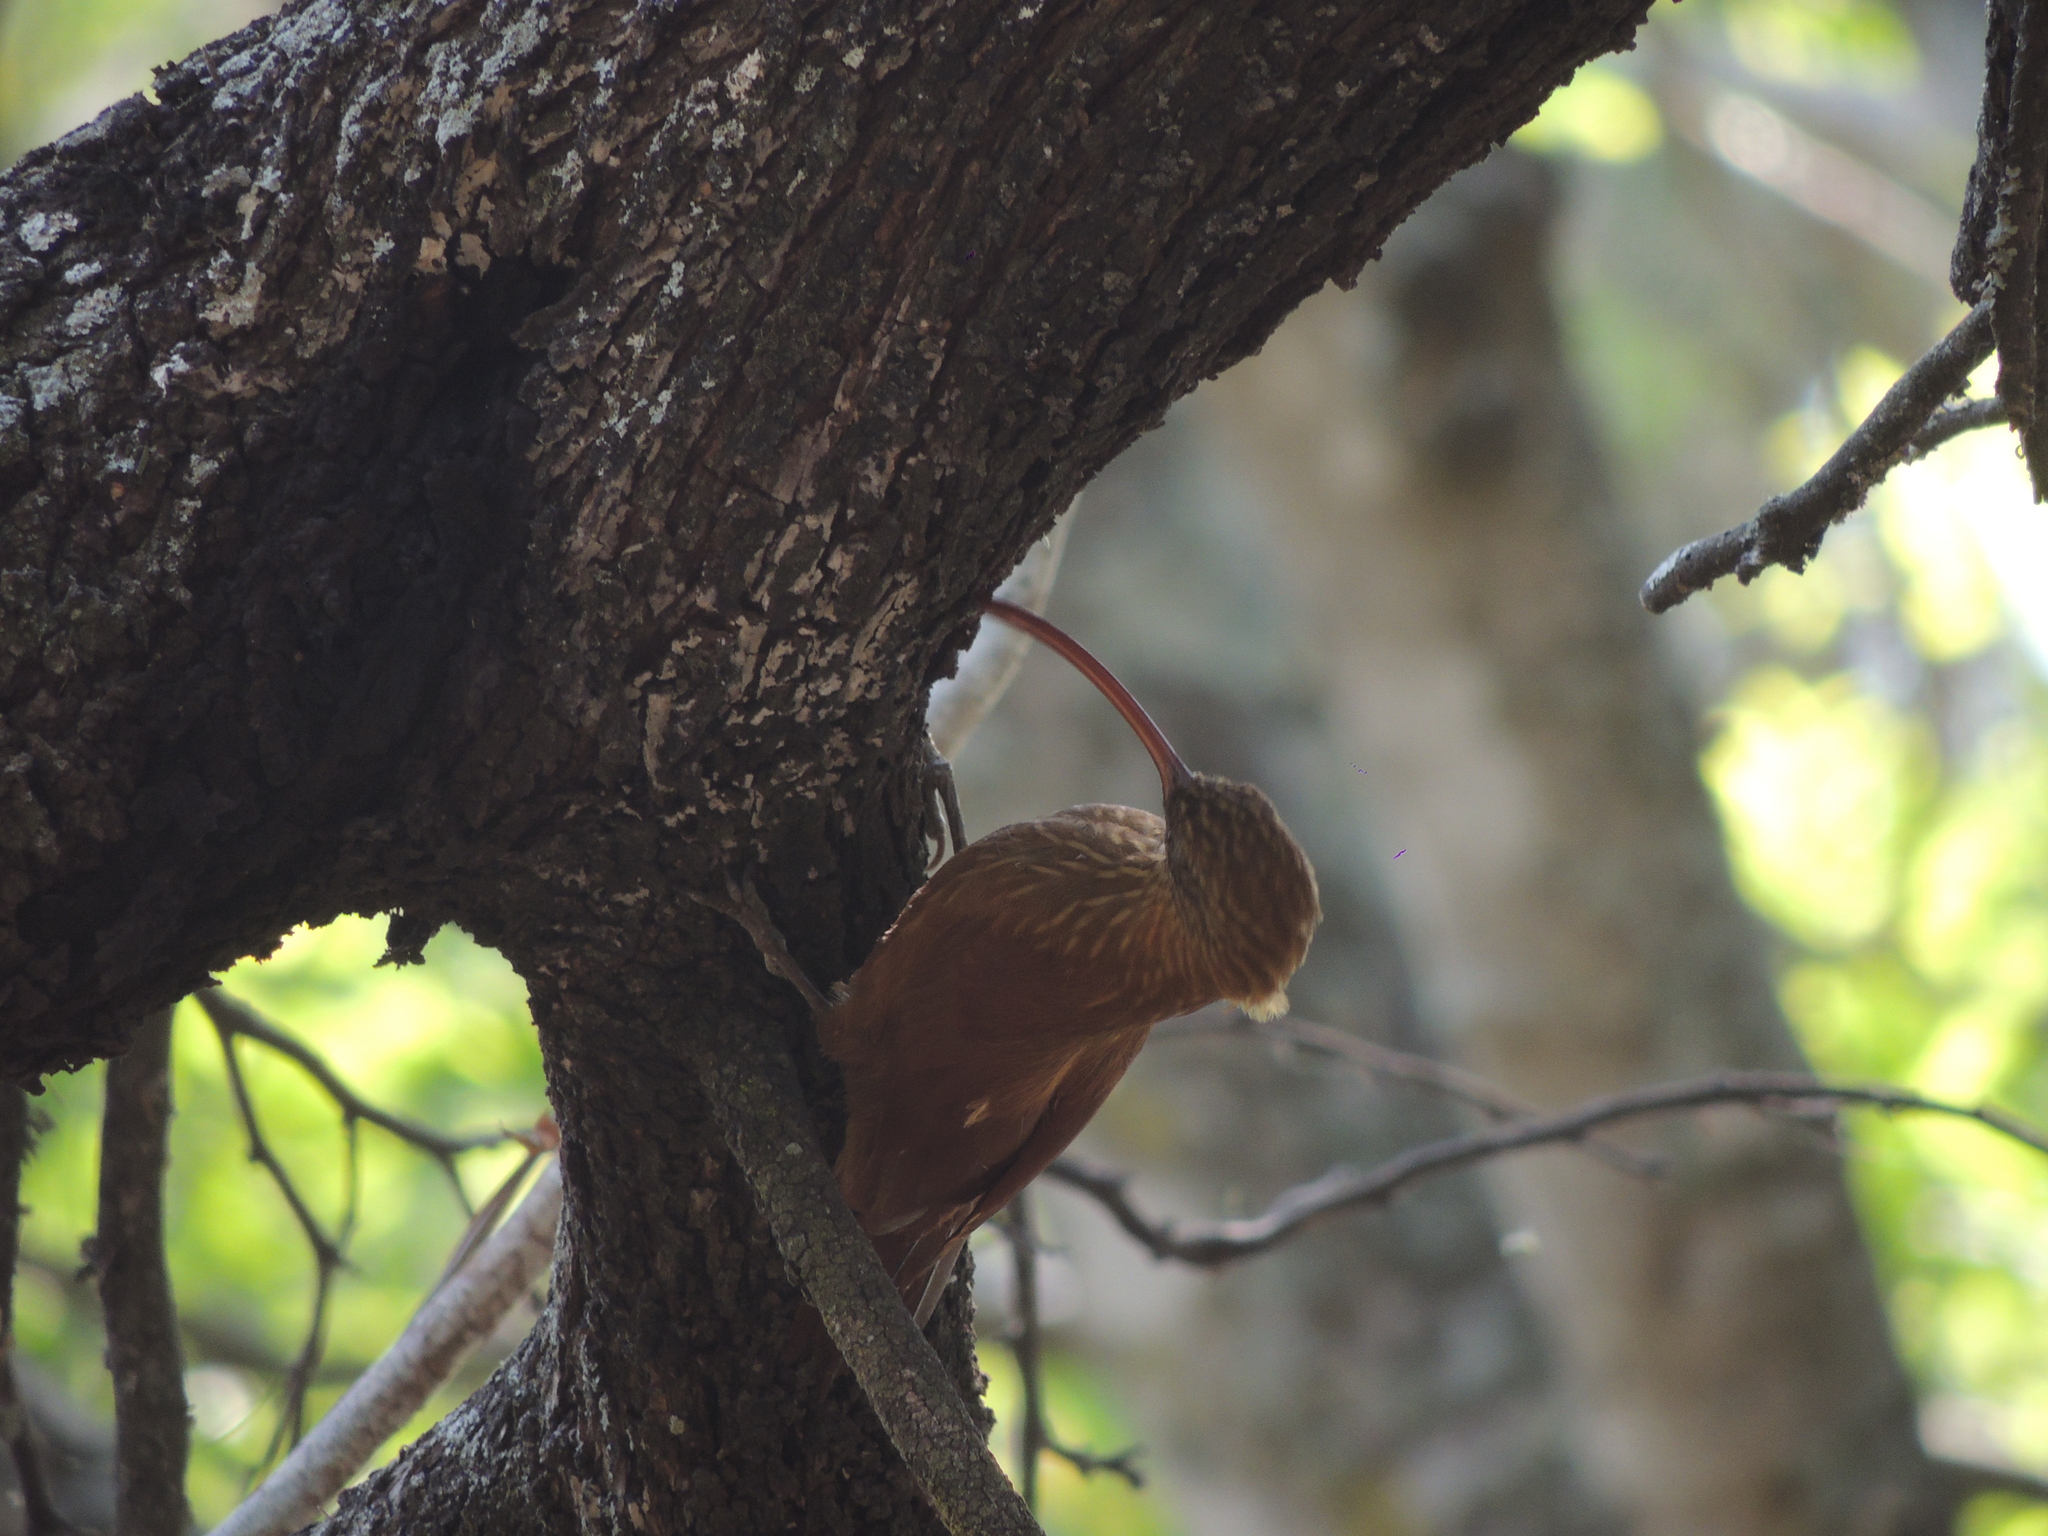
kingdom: Animalia
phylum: Chordata
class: Aves
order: Passeriformes
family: Furnariidae
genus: Campylorhamphus
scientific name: Campylorhamphus trochilirostris
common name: Red-billed scythebill
